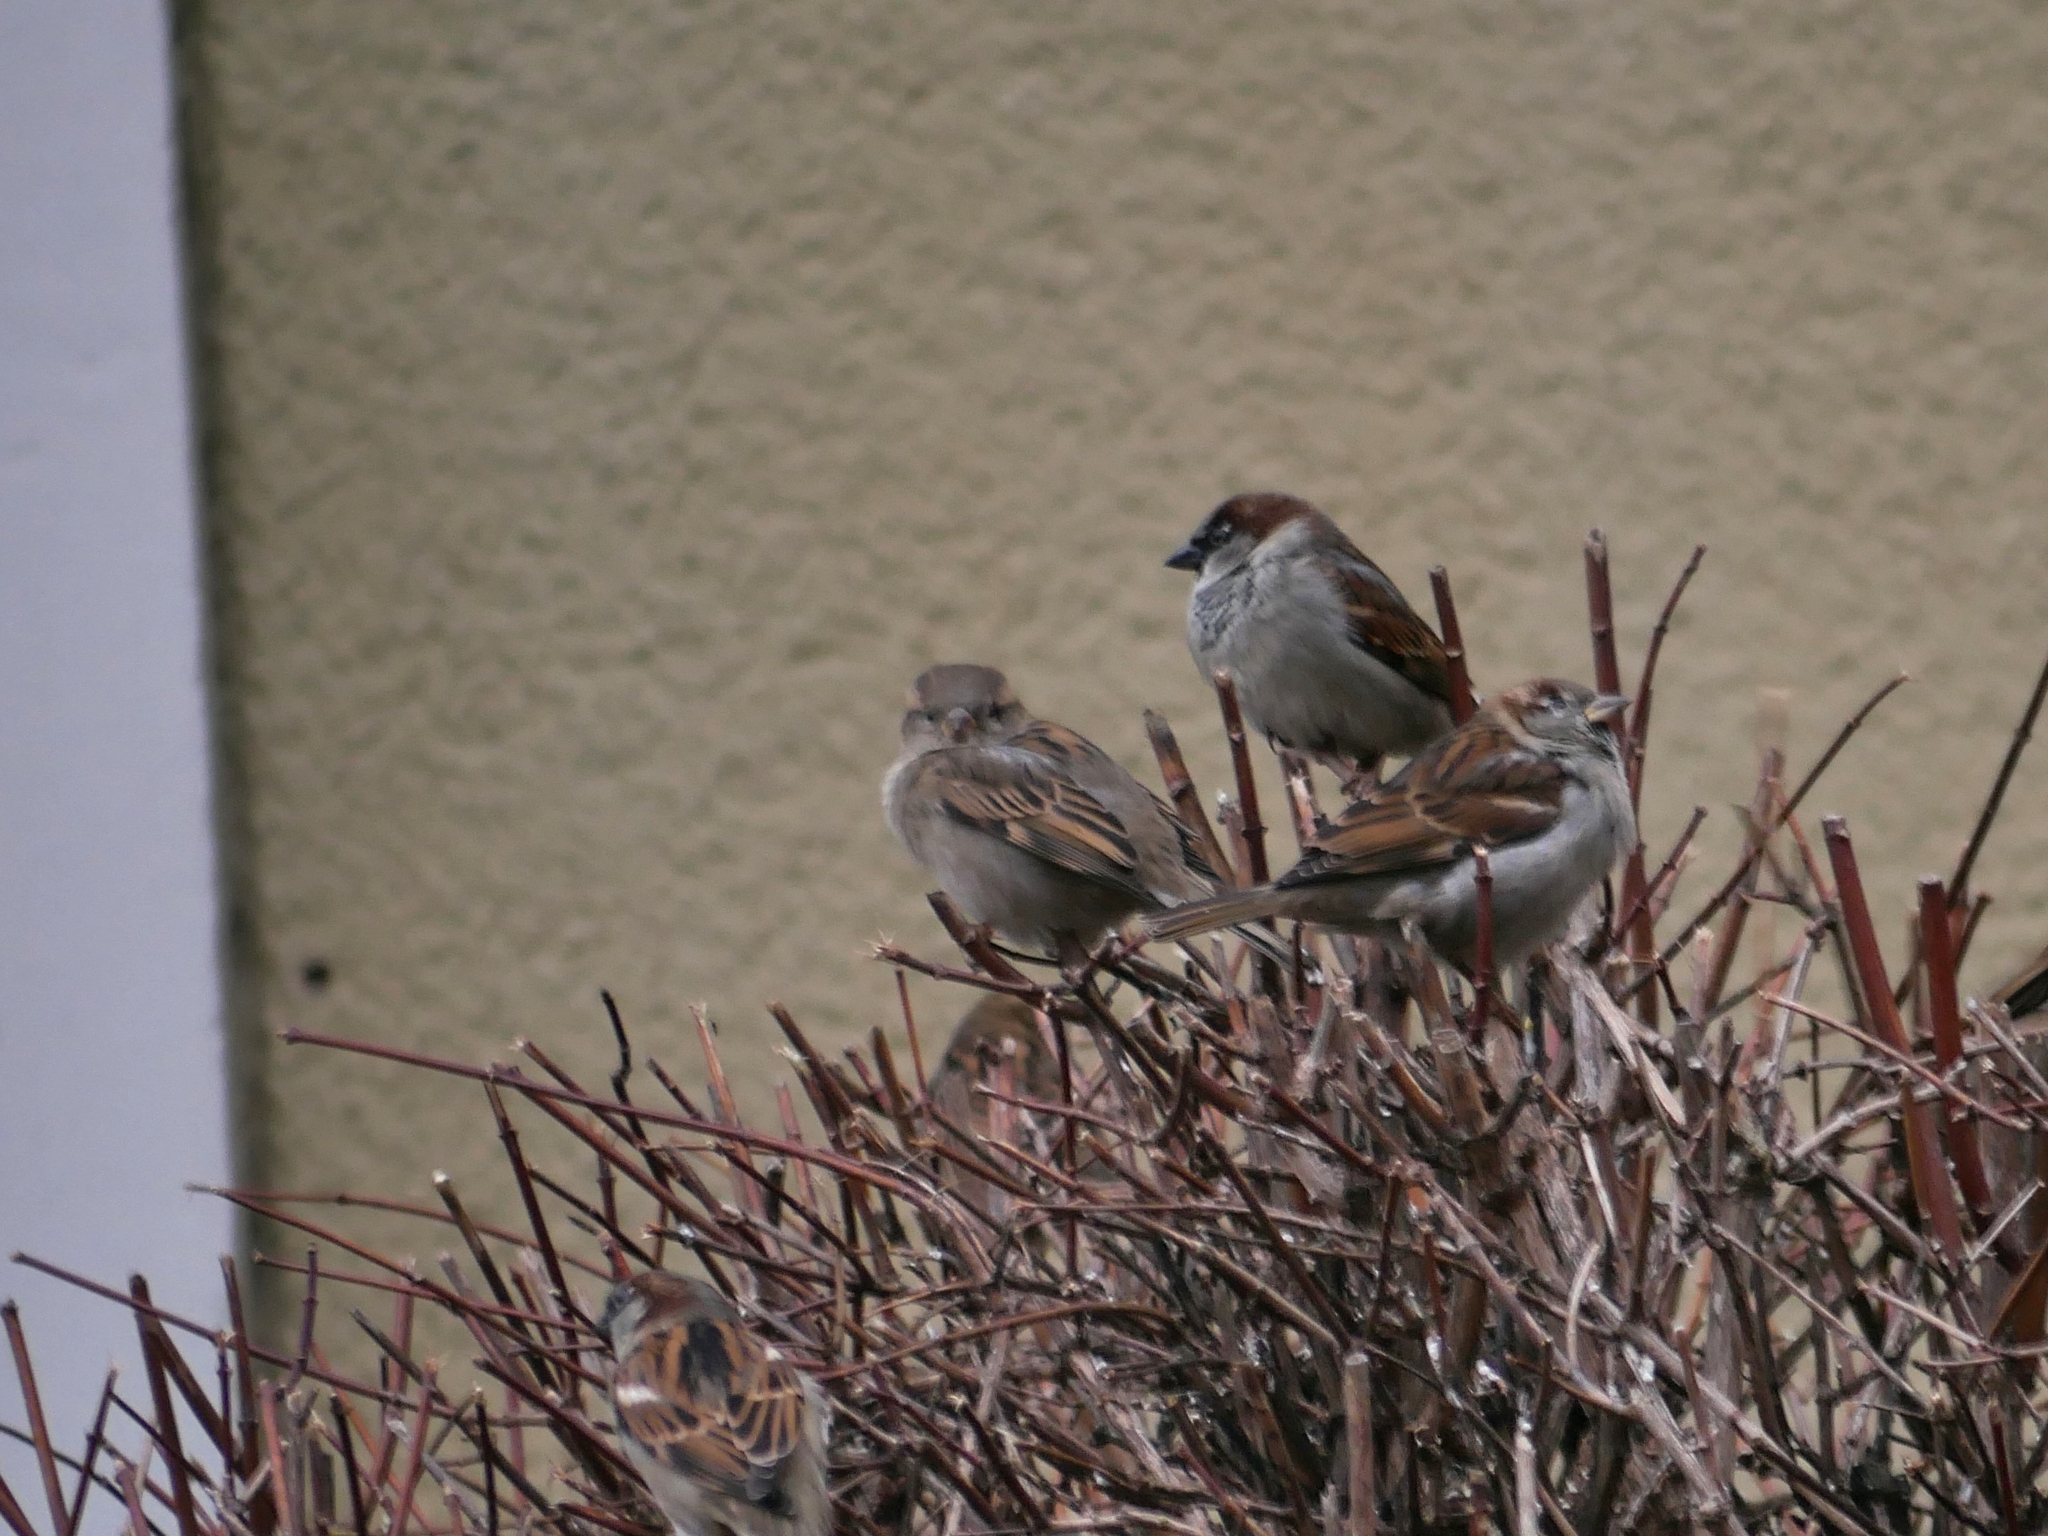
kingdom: Animalia
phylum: Chordata
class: Aves
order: Passeriformes
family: Passeridae
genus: Passer
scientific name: Passer domesticus
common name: House sparrow
